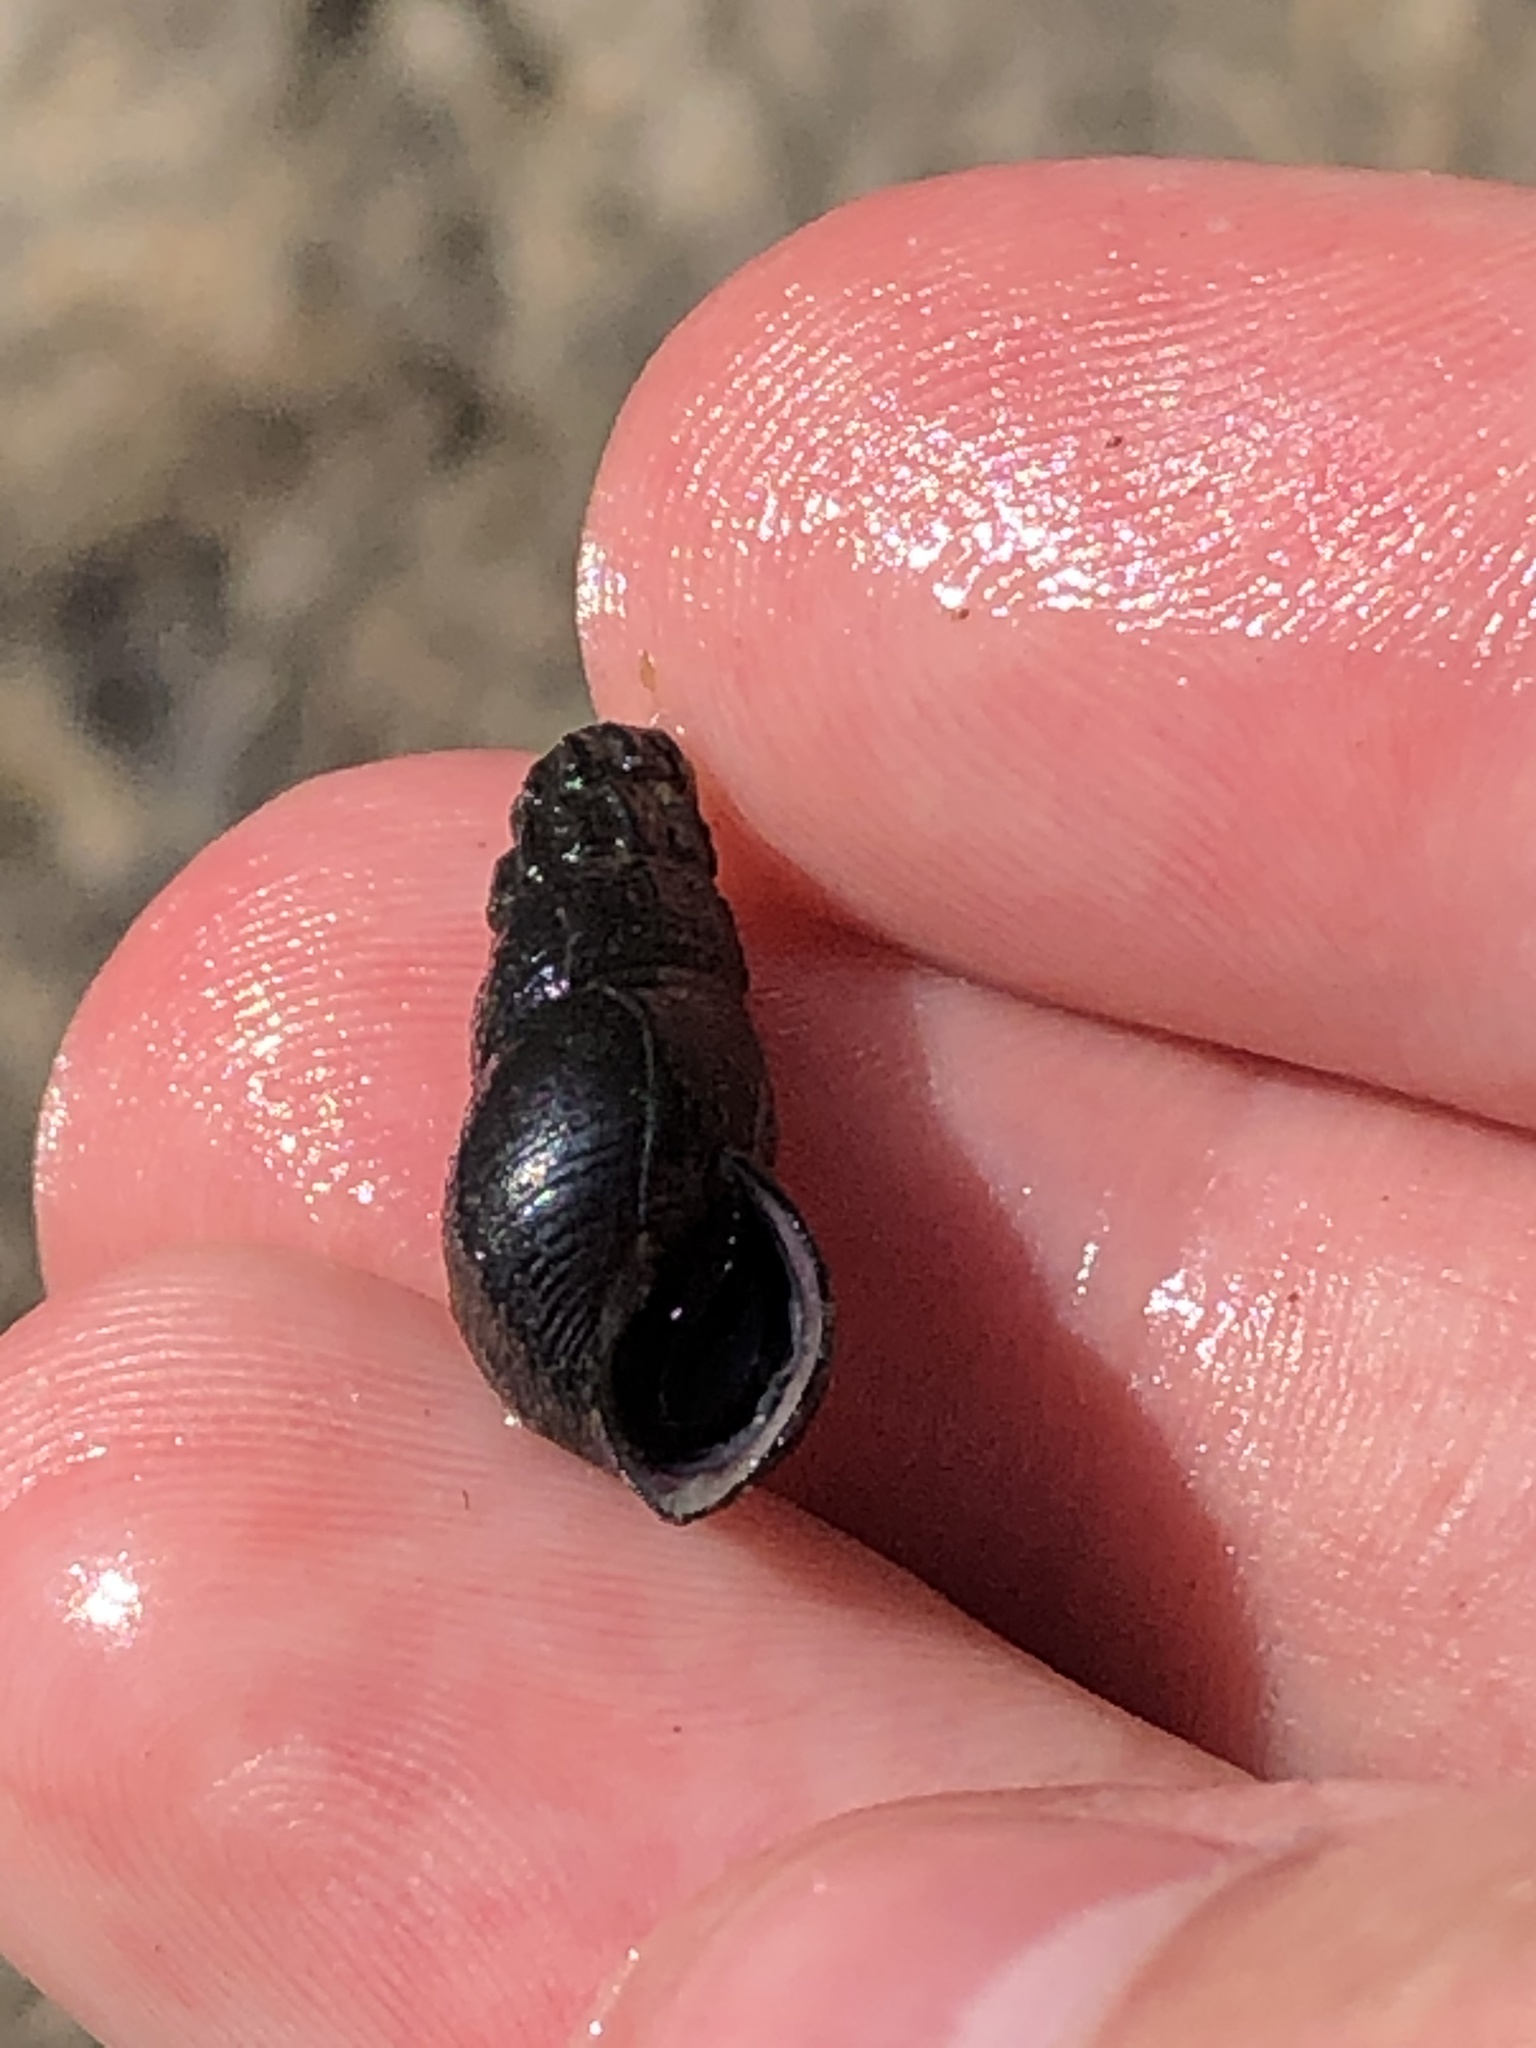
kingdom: Animalia
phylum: Mollusca
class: Gastropoda
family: Semisulcospiridae
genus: Juga
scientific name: Juga plicifera
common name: Pleated juga
